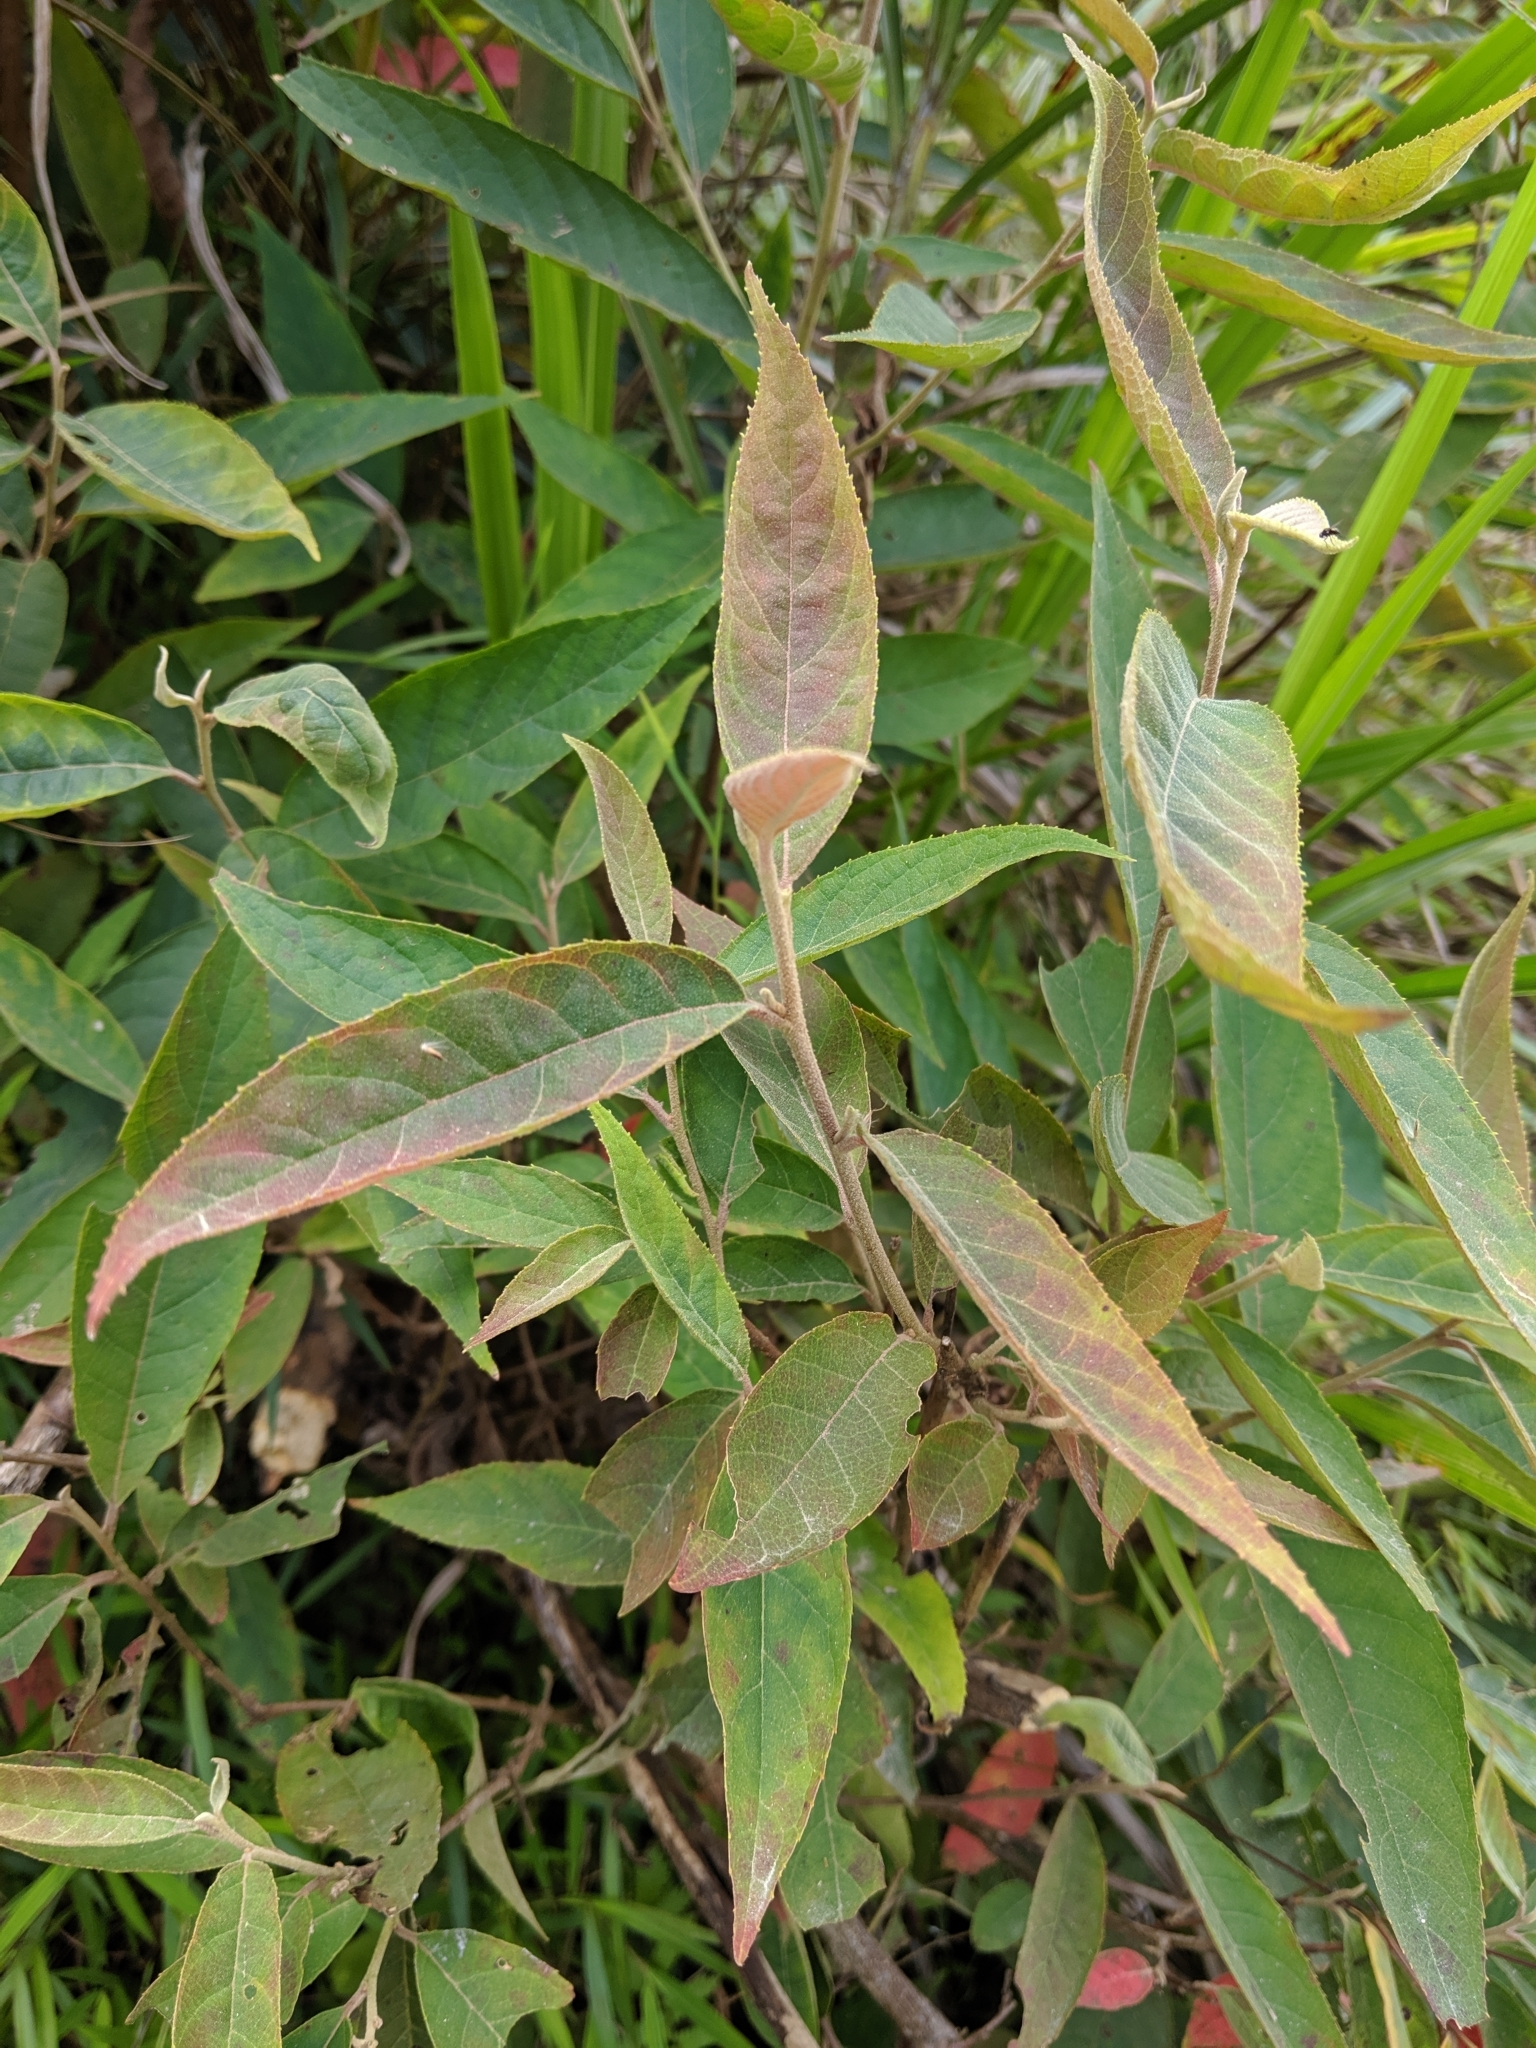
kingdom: Plantae
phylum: Tracheophyta
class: Magnoliopsida
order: Ericales
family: Styracaceae
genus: Alniphyllum
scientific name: Alniphyllum pterospermum
